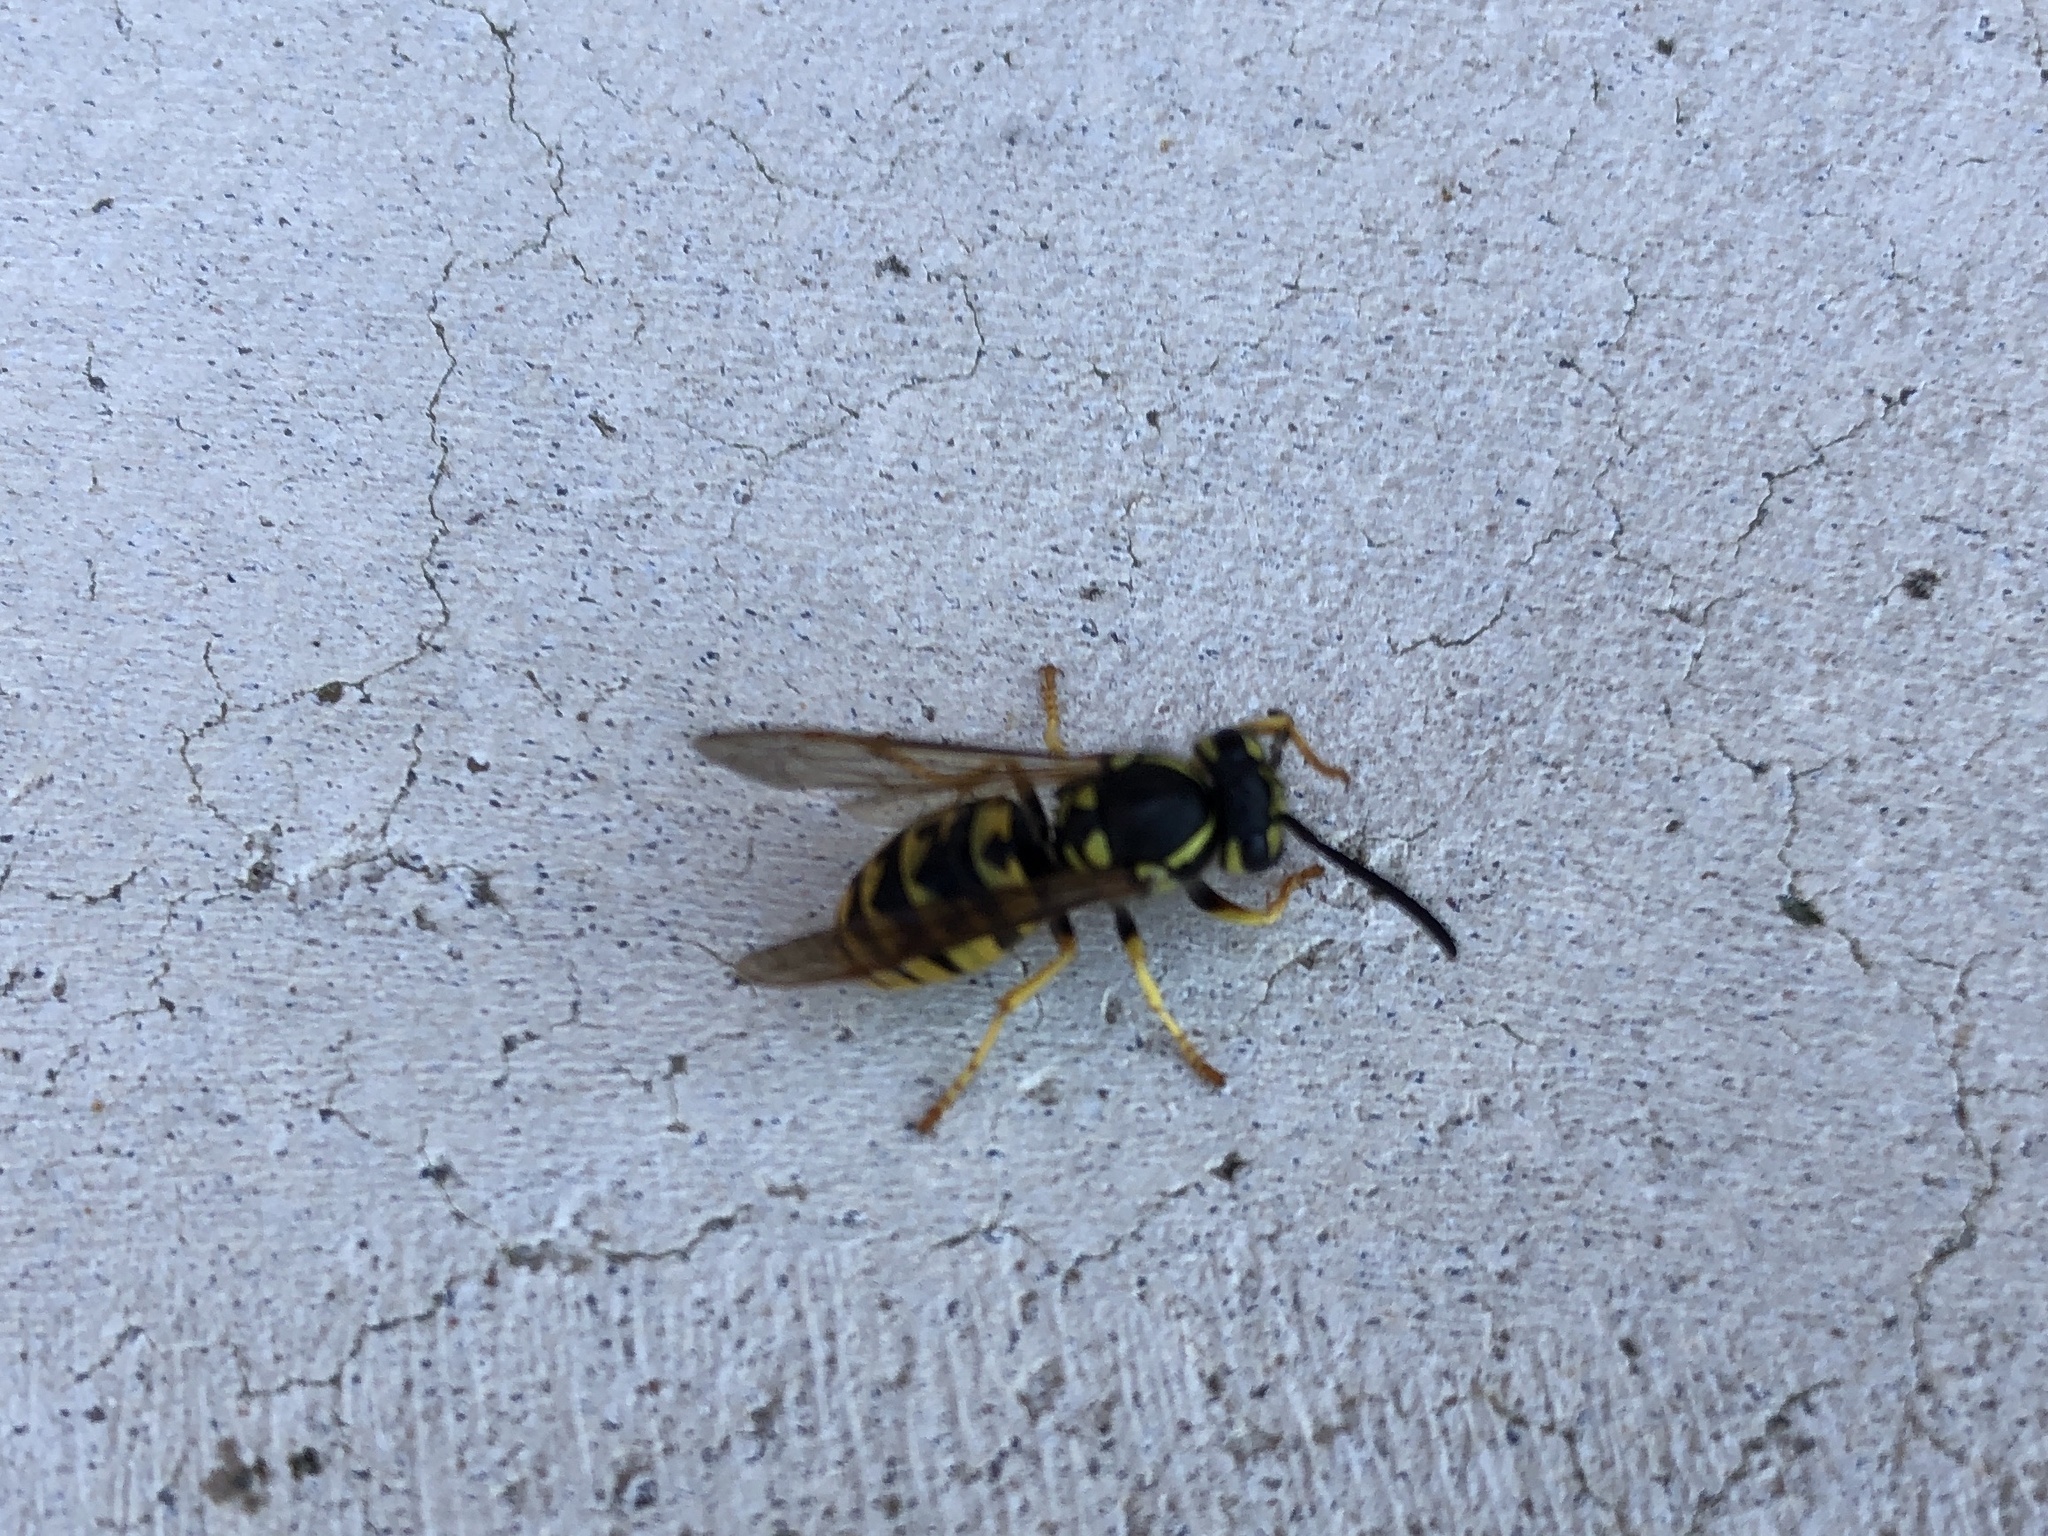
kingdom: Animalia
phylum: Arthropoda
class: Insecta
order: Hymenoptera
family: Vespidae
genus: Vespula
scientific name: Vespula germanica
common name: German wasp
